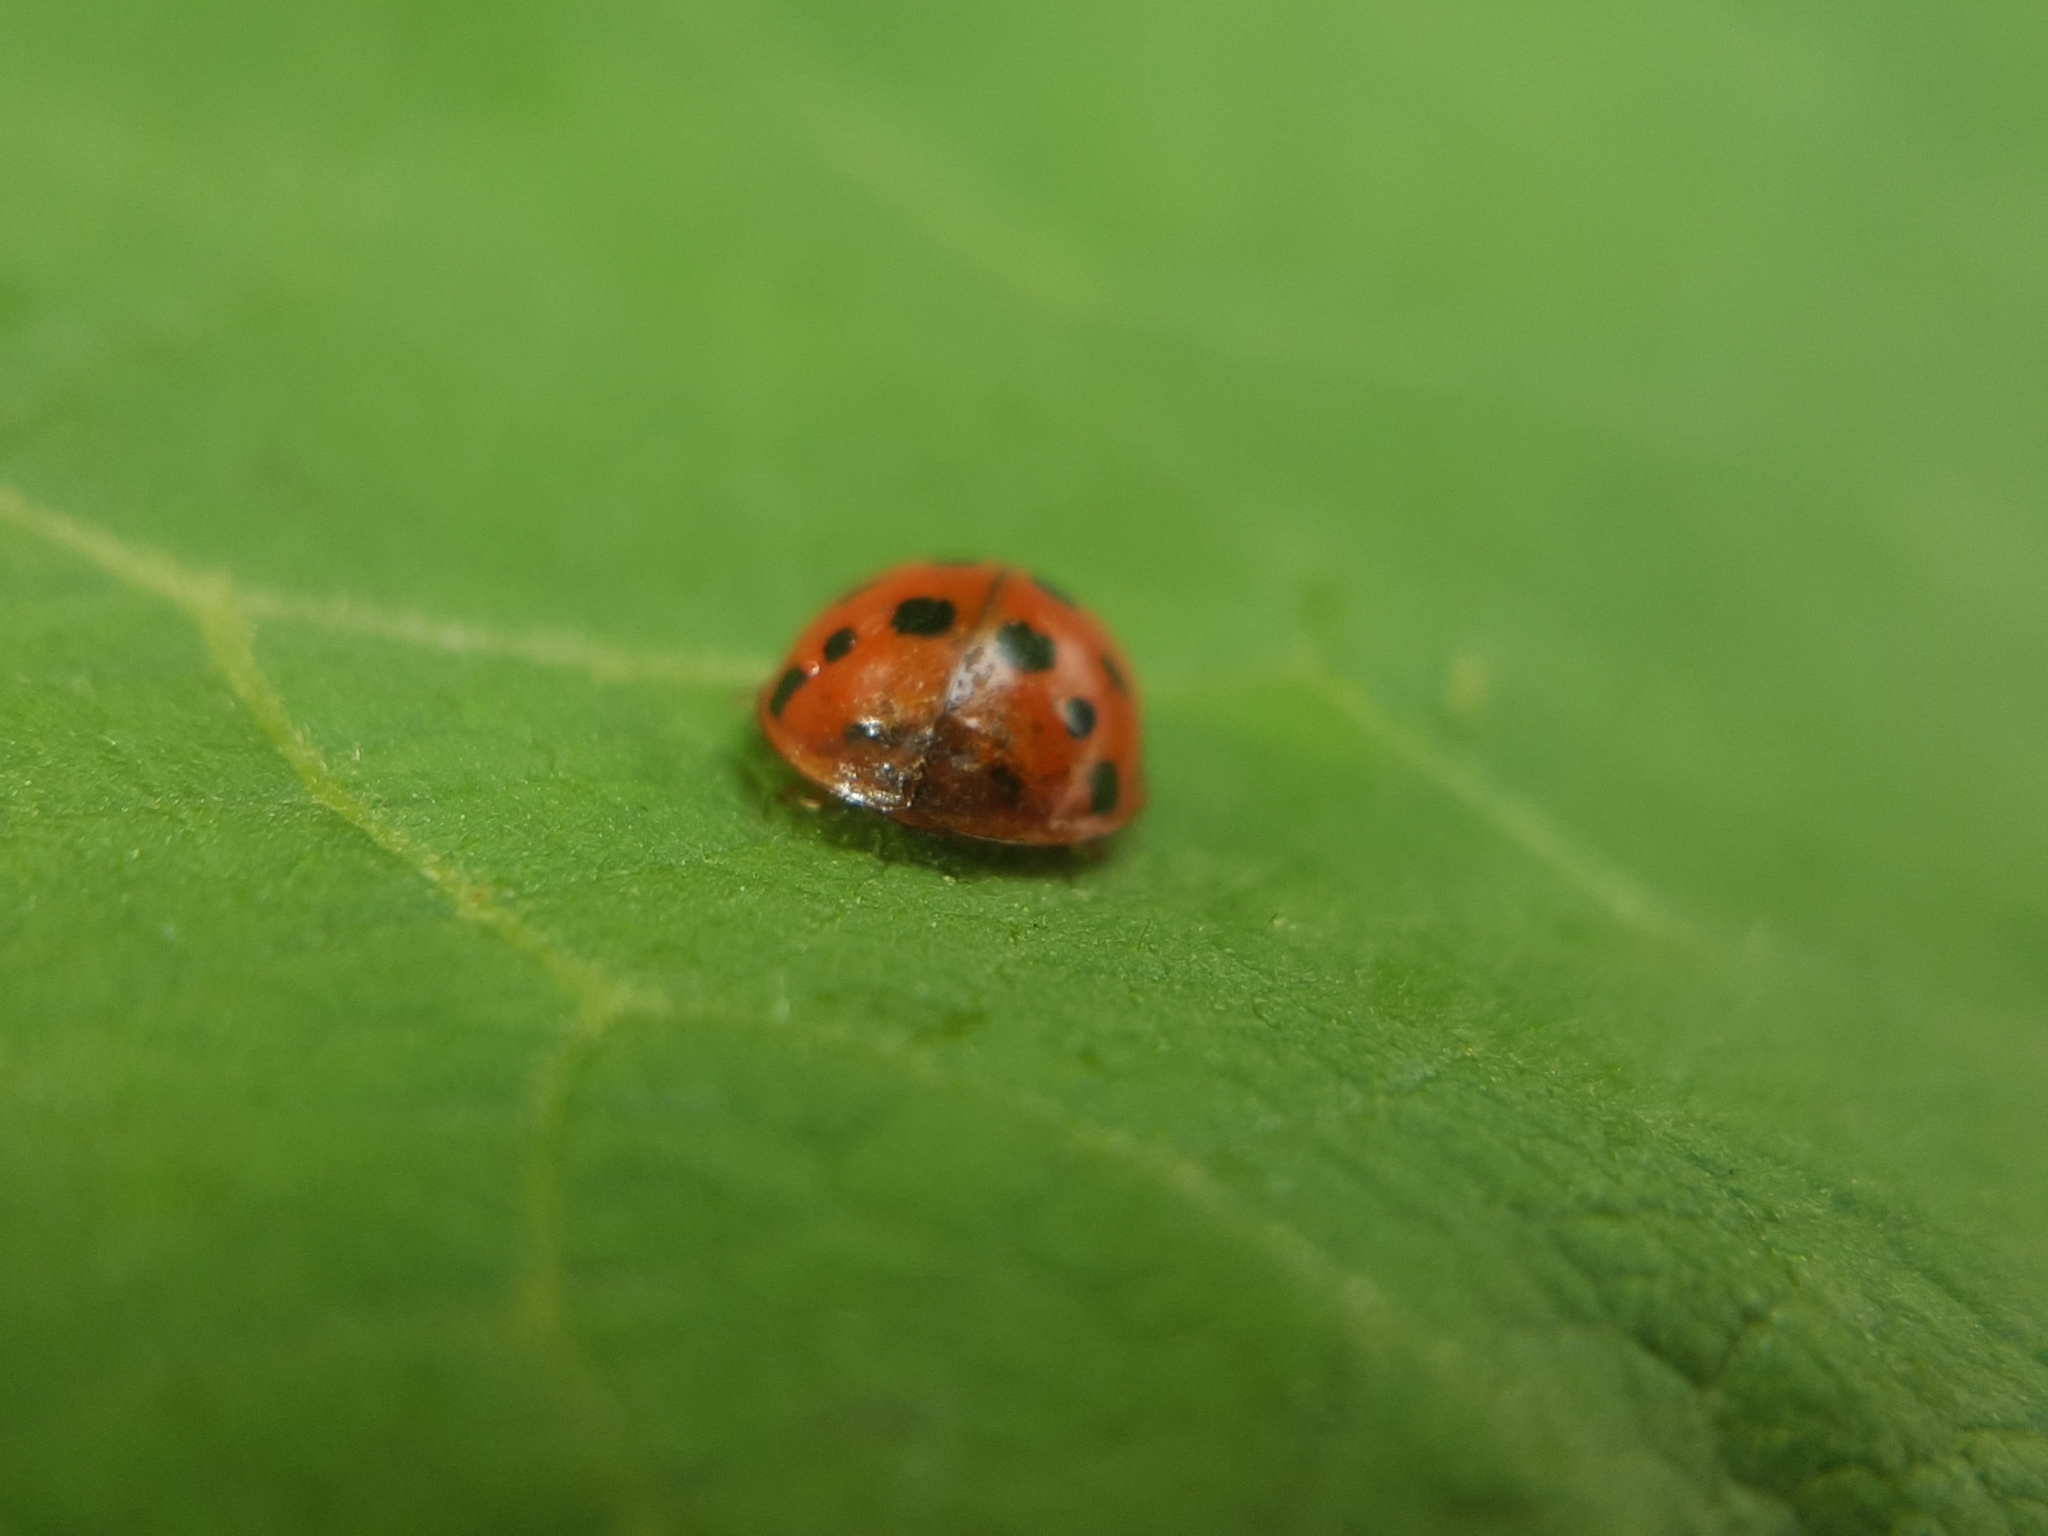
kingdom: Animalia
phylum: Arthropoda
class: Insecta
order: Coleoptera
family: Coccinellidae
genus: Harmonia
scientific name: Harmonia axyridis
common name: Harlequin ladybird
